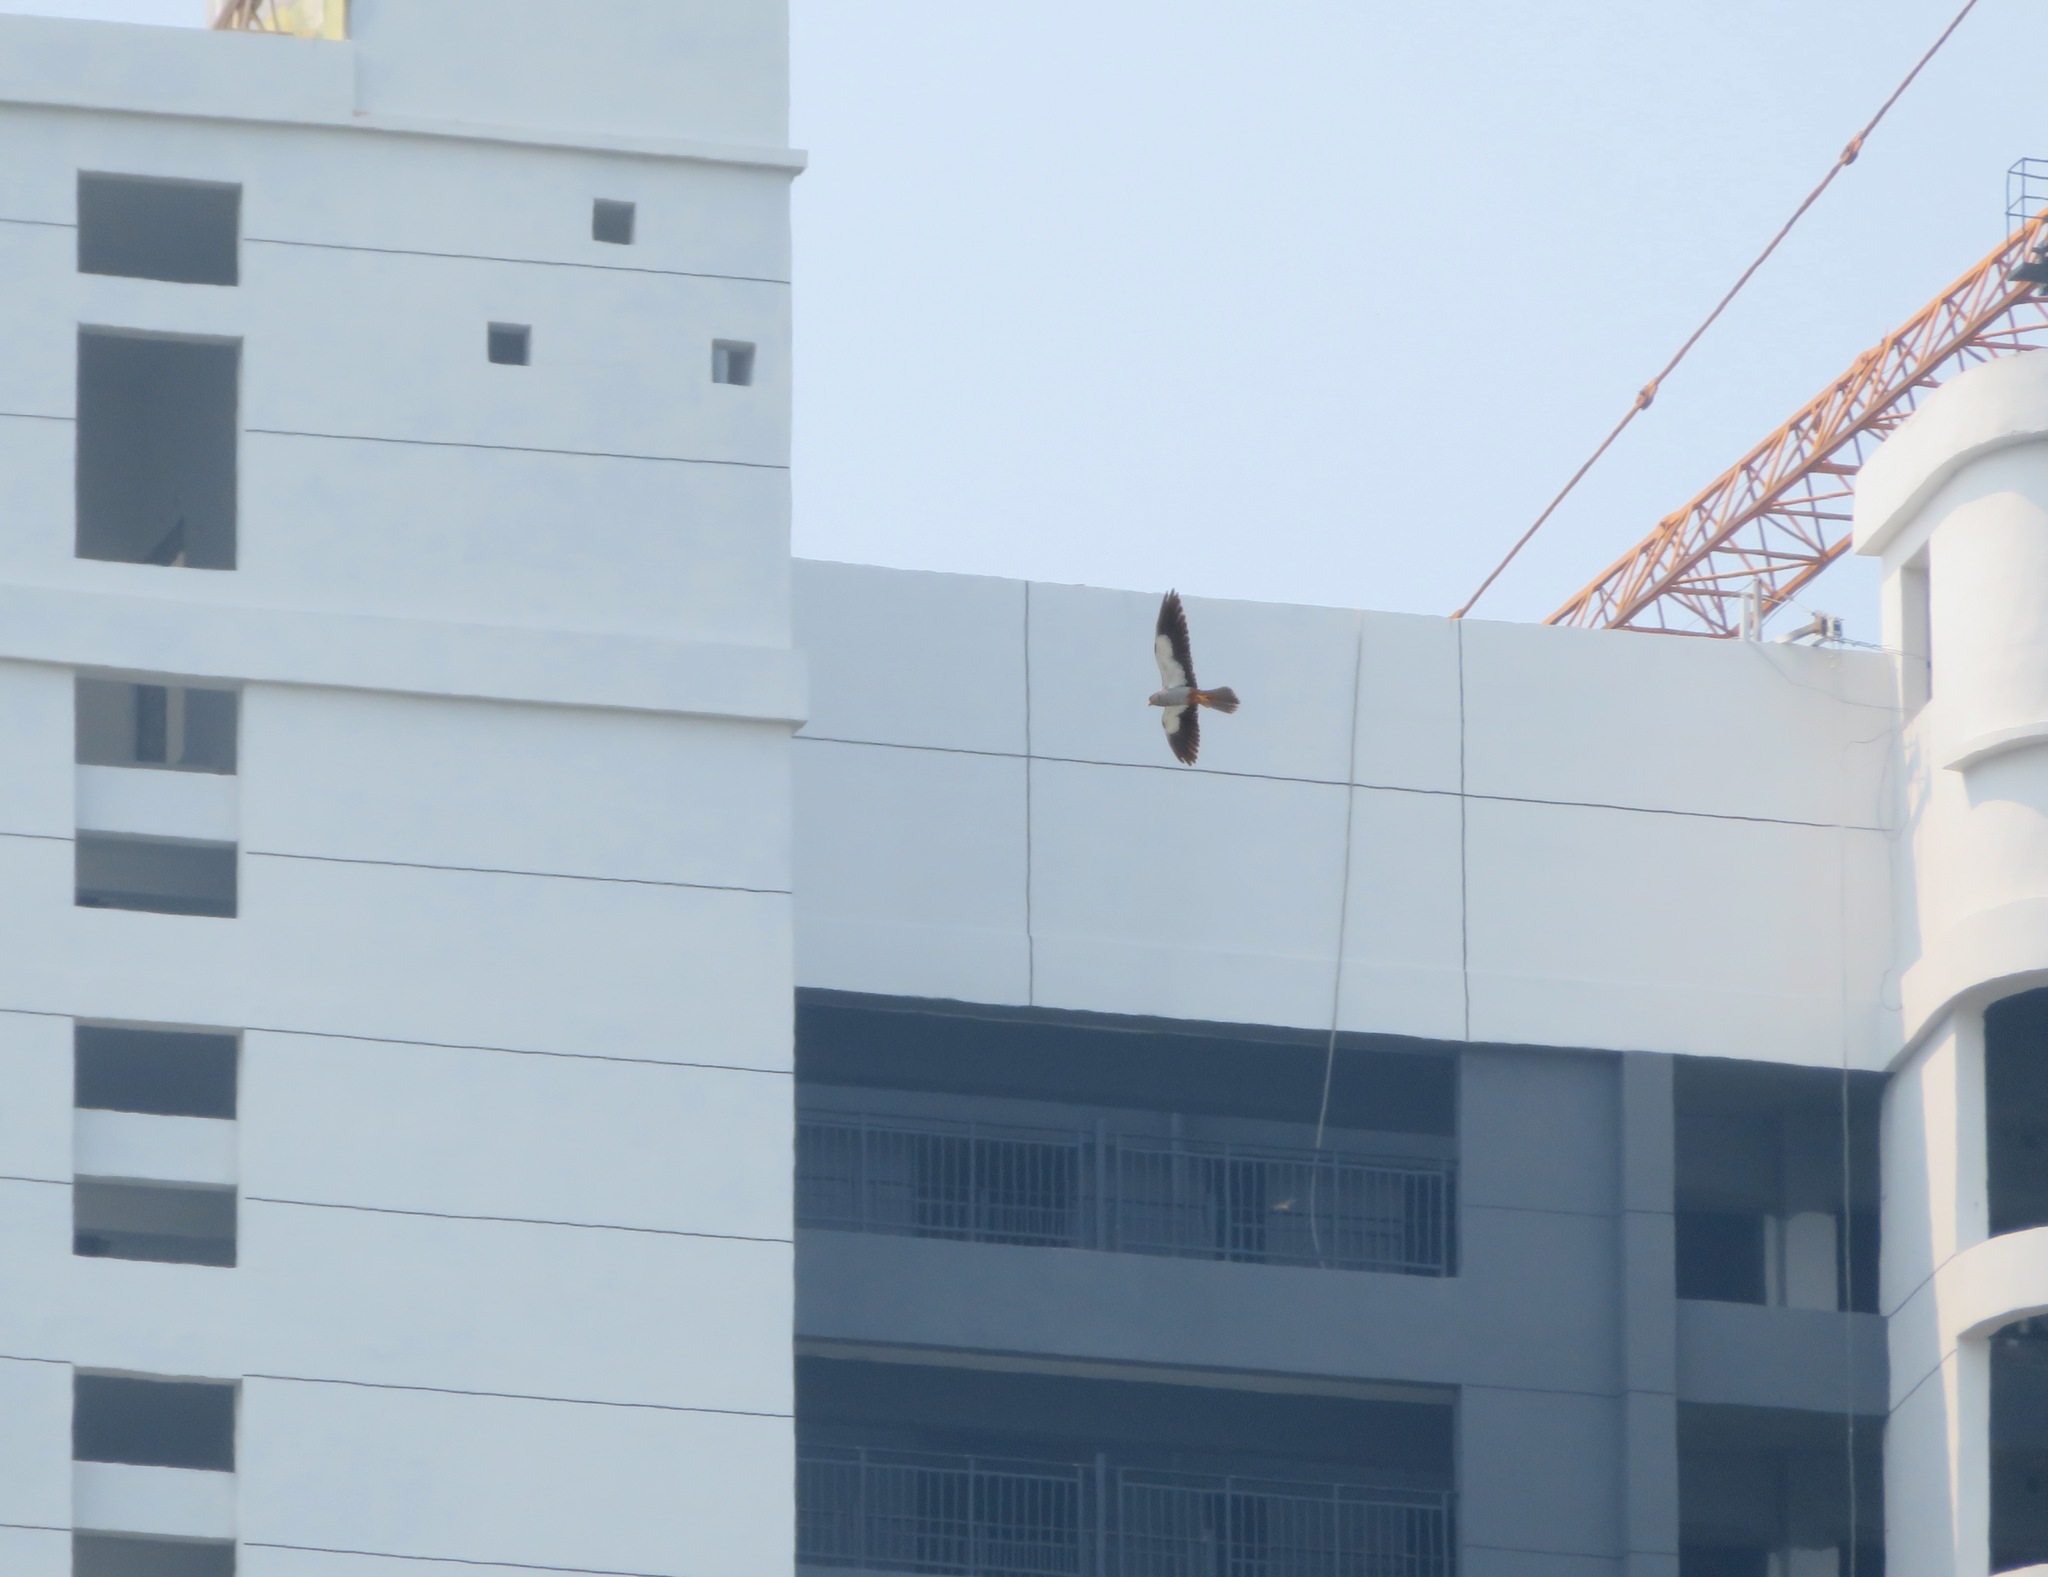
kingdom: Animalia
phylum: Chordata
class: Aves
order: Falconiformes
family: Falconidae
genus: Falco
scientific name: Falco amurensis
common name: Amur falcon
